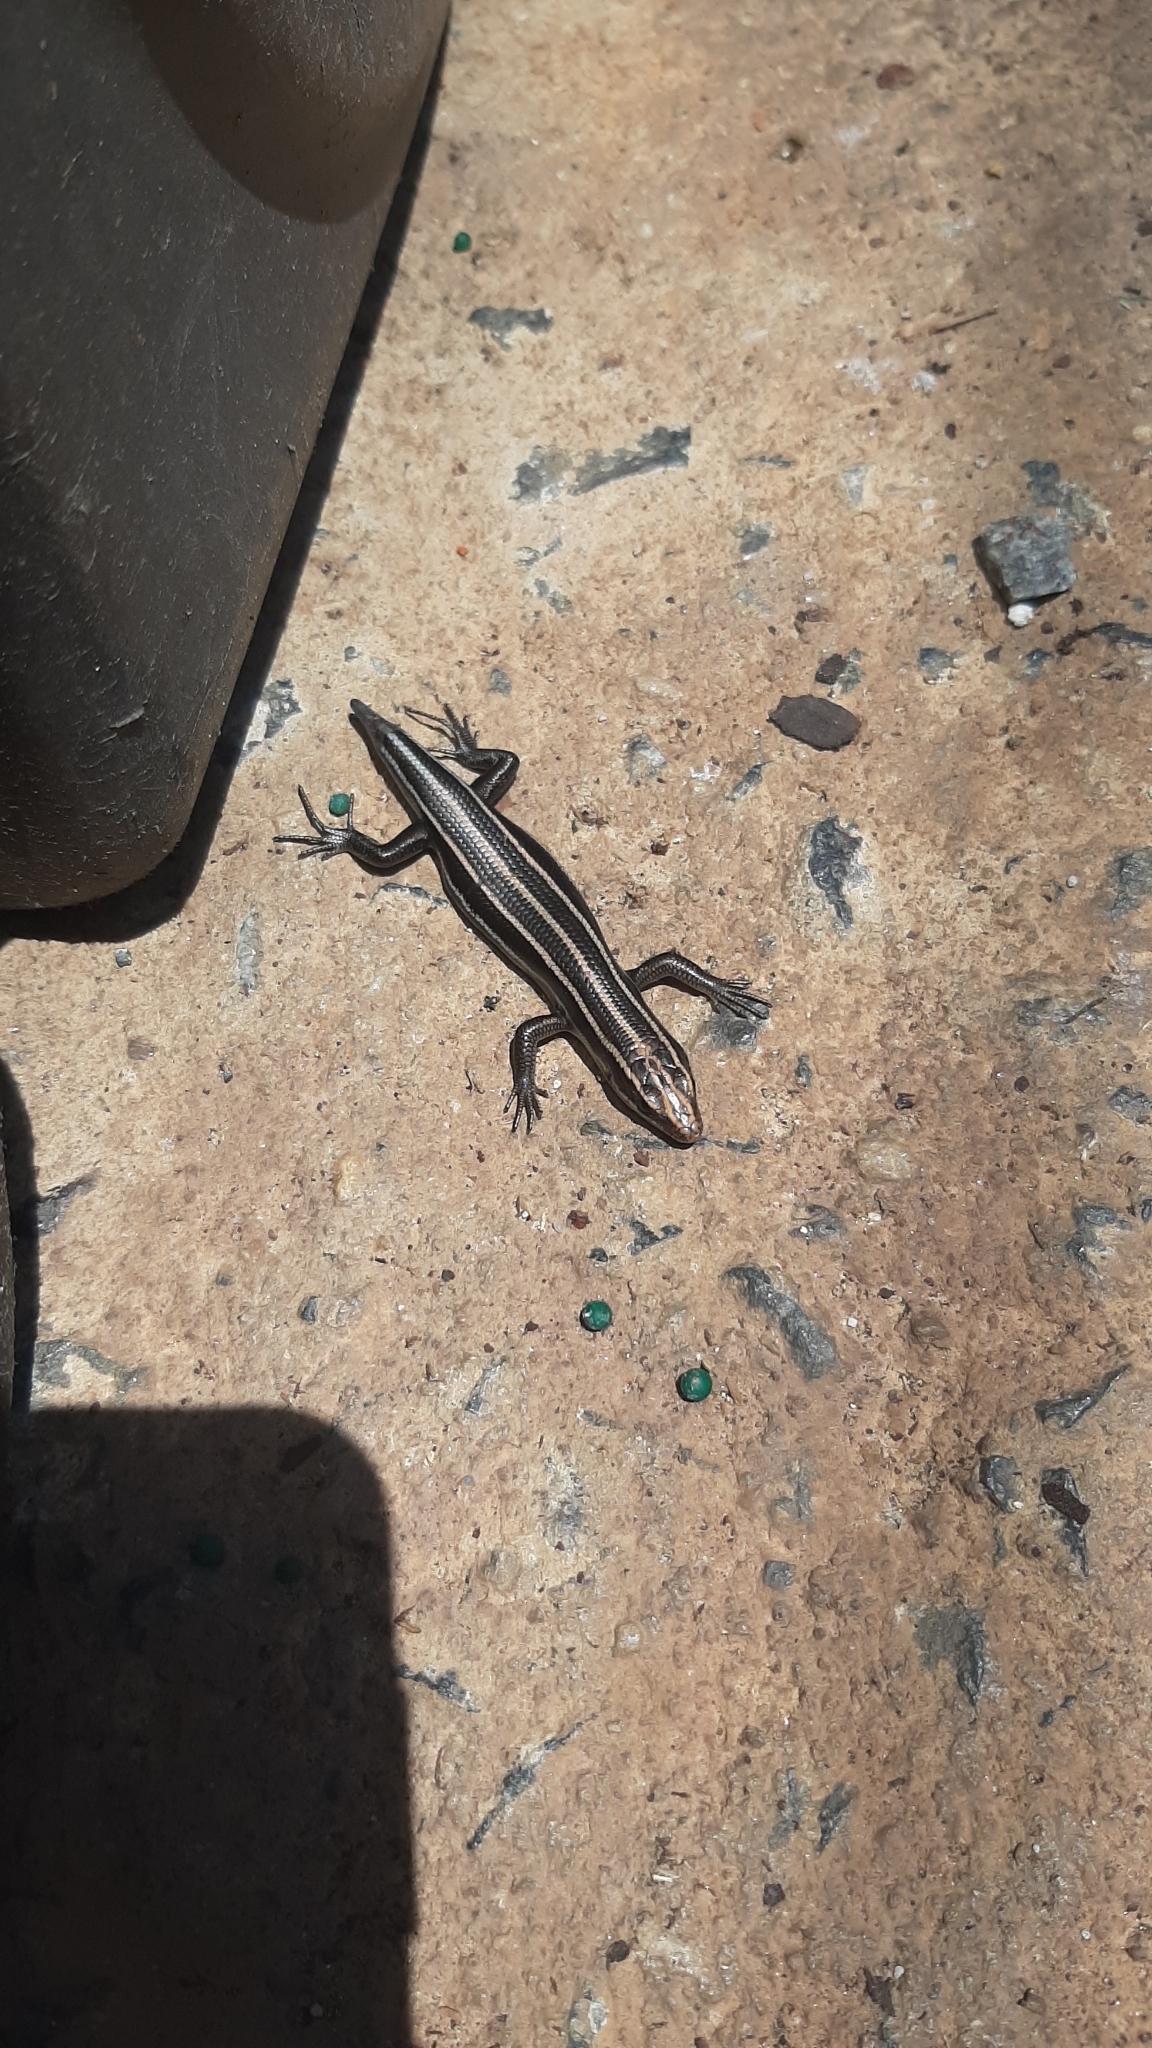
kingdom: Animalia
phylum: Chordata
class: Squamata
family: Scincidae
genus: Plestiodon
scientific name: Plestiodon fasciatus
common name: Five-lined skink
